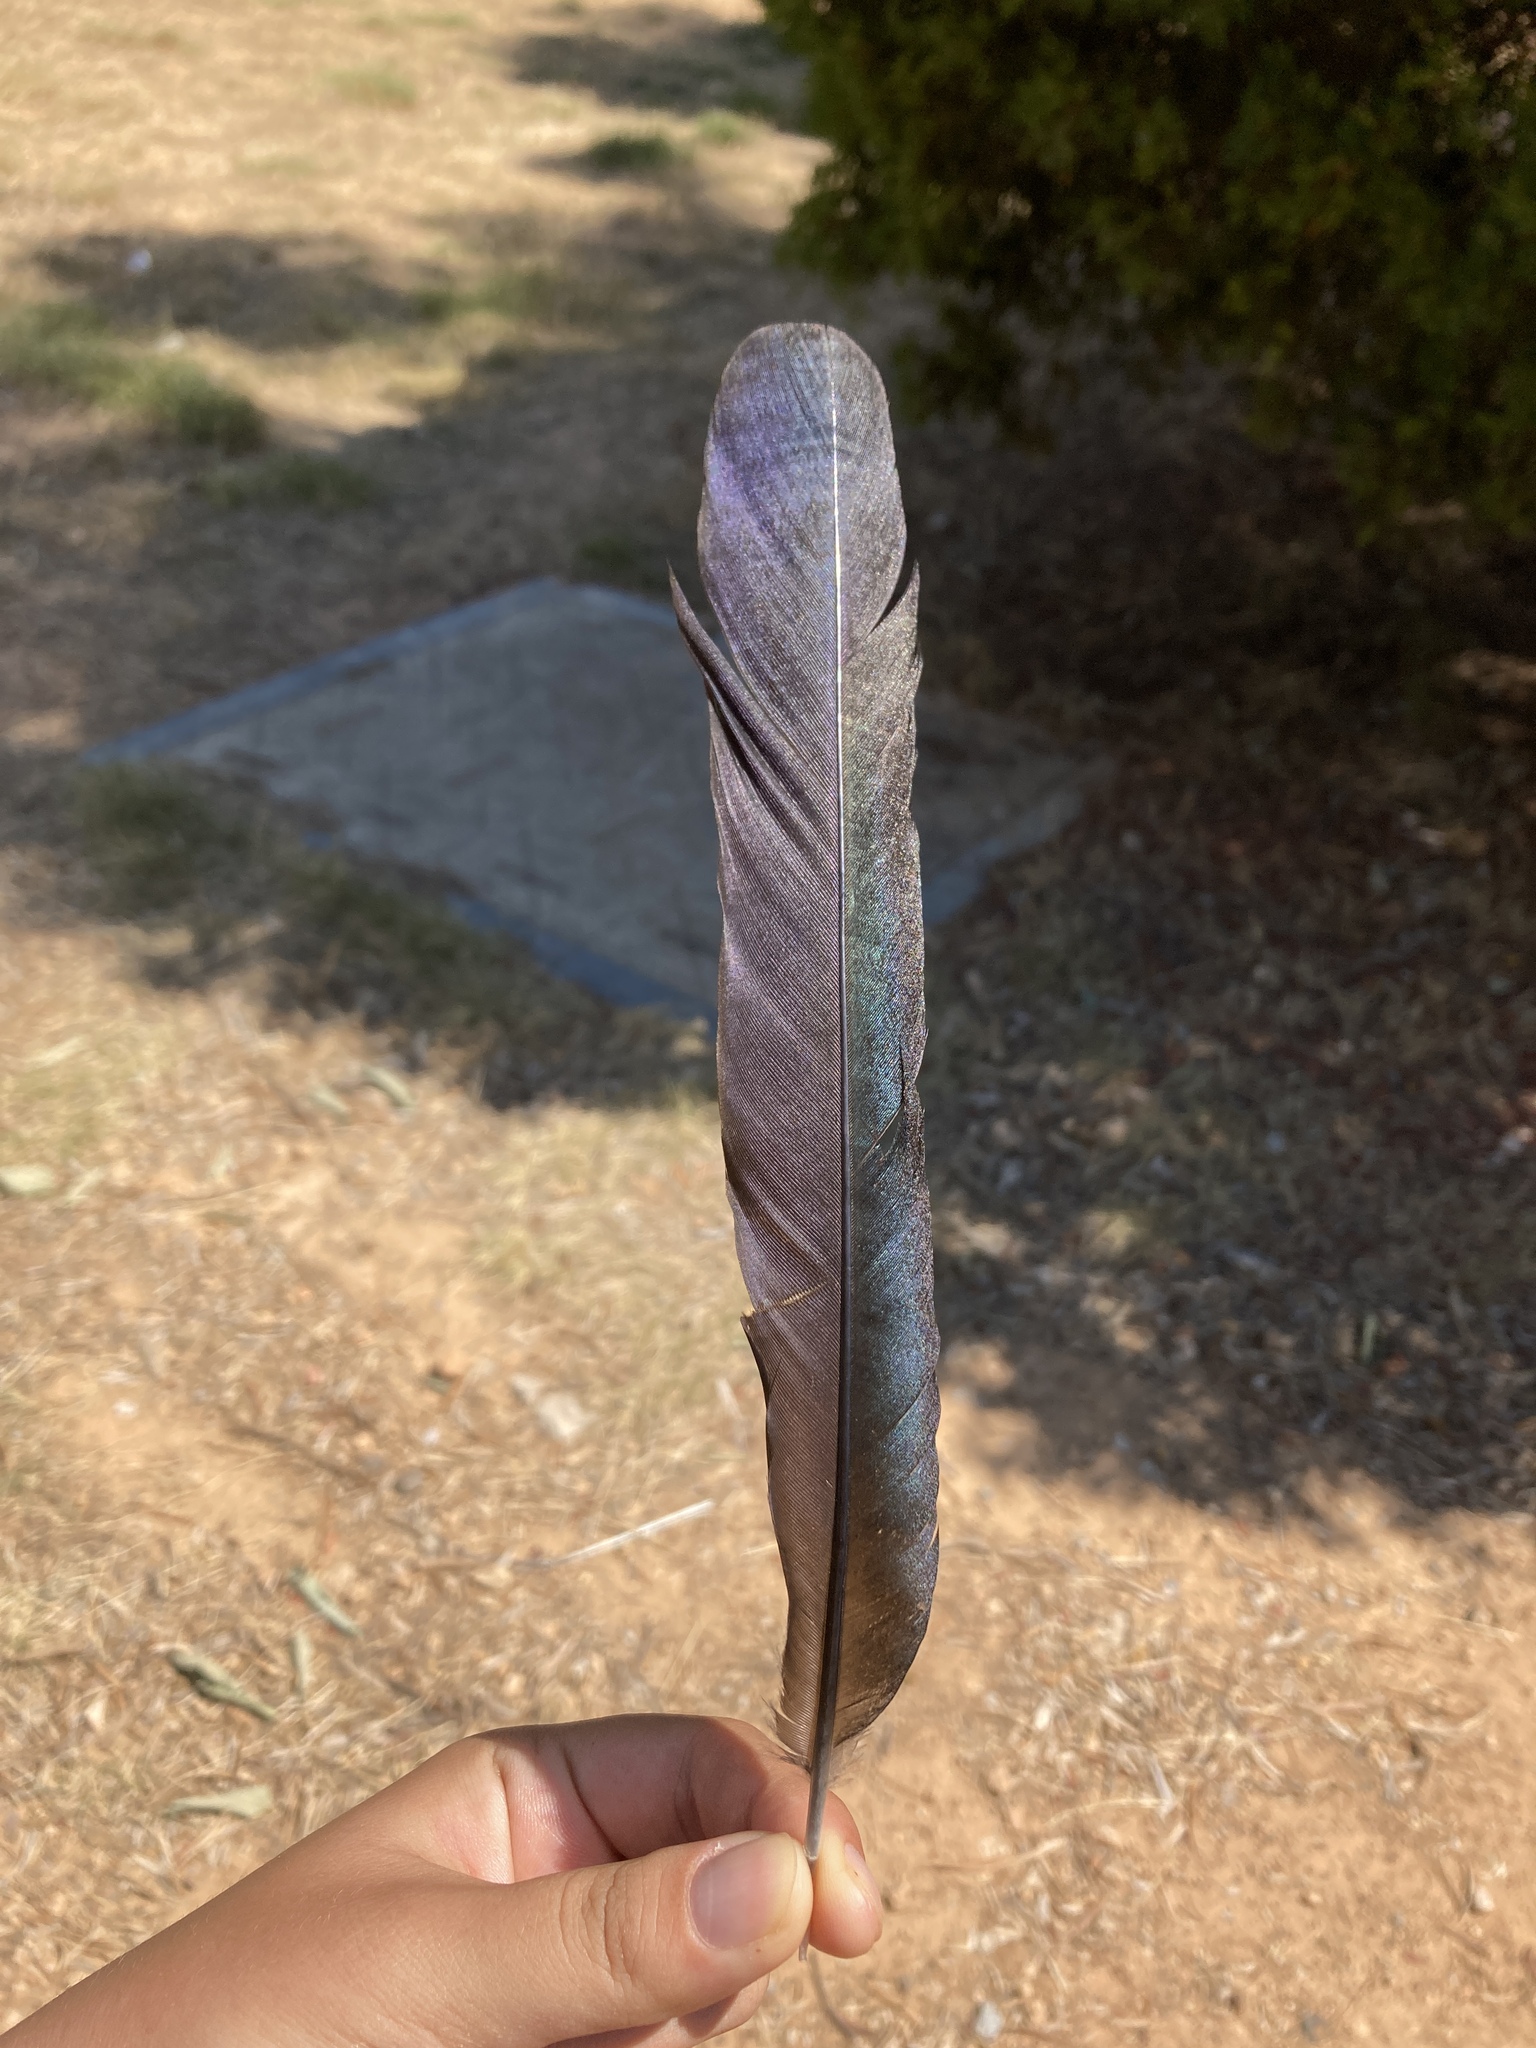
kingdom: Animalia
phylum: Chordata
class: Aves
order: Passeriformes
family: Corvidae
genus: Pica
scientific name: Pica pica
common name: Eurasian magpie
